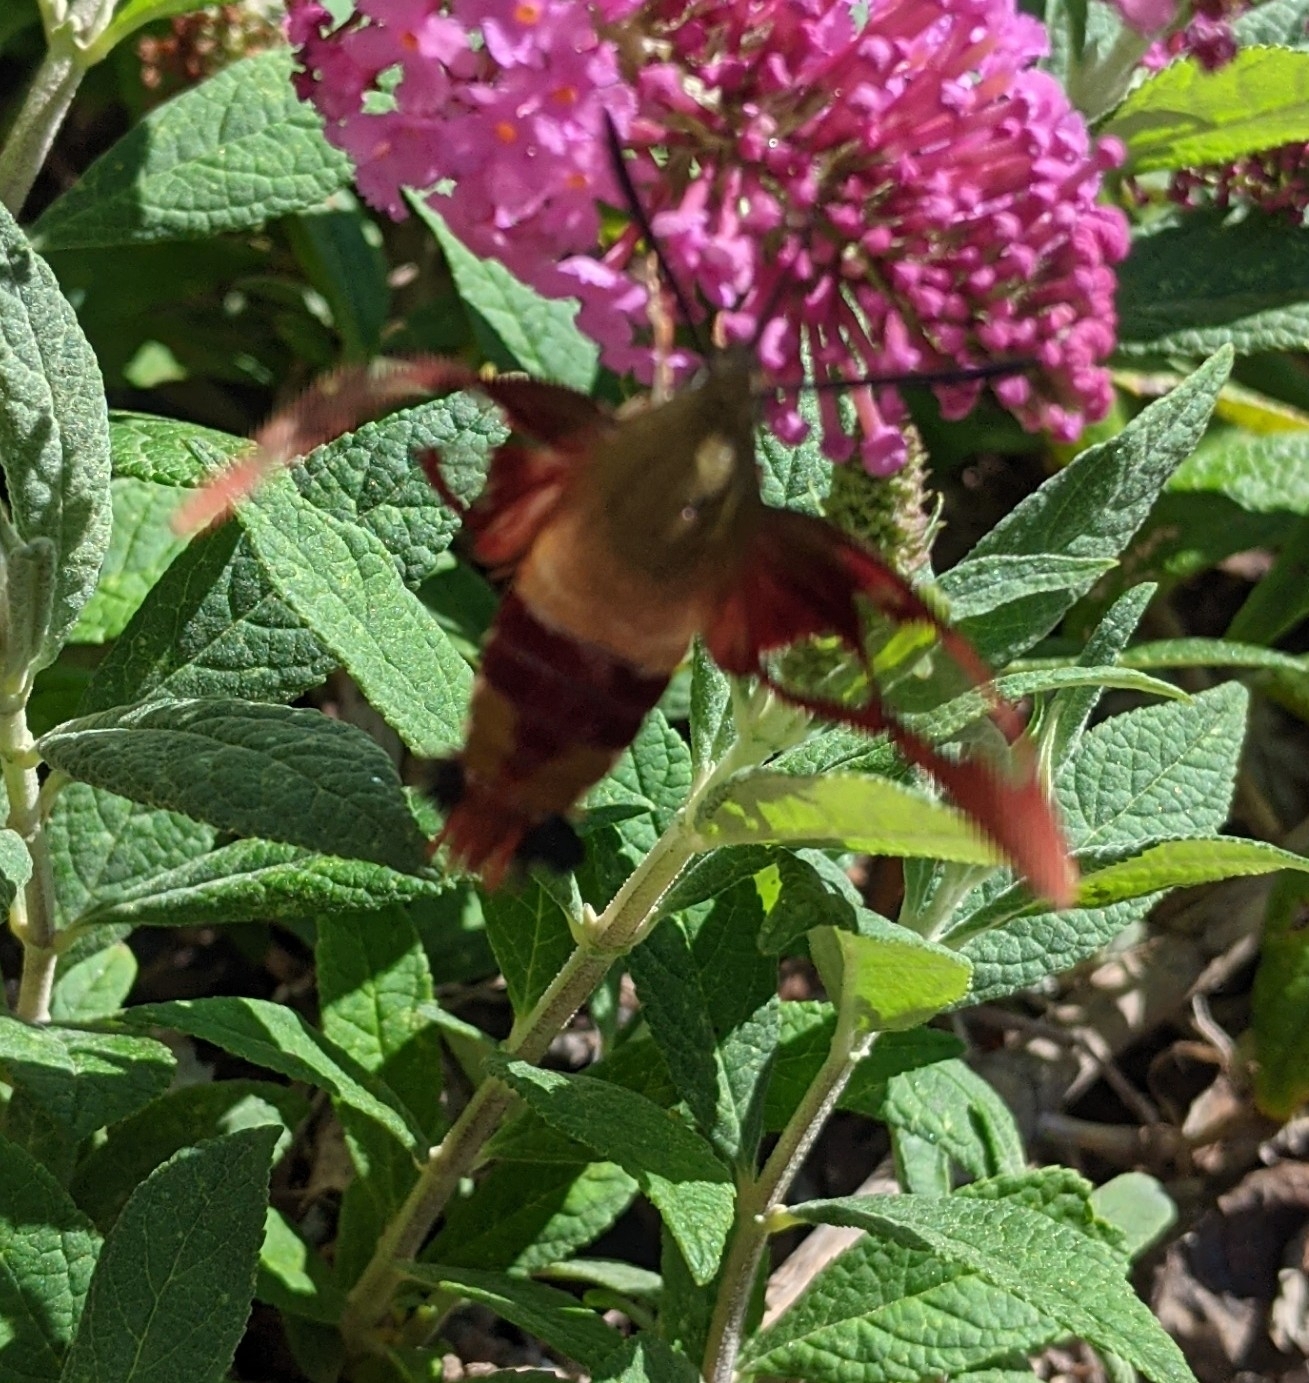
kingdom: Animalia
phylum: Arthropoda
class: Insecta
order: Lepidoptera
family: Sphingidae
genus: Hemaris
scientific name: Hemaris thysbe
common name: Common clear-wing
